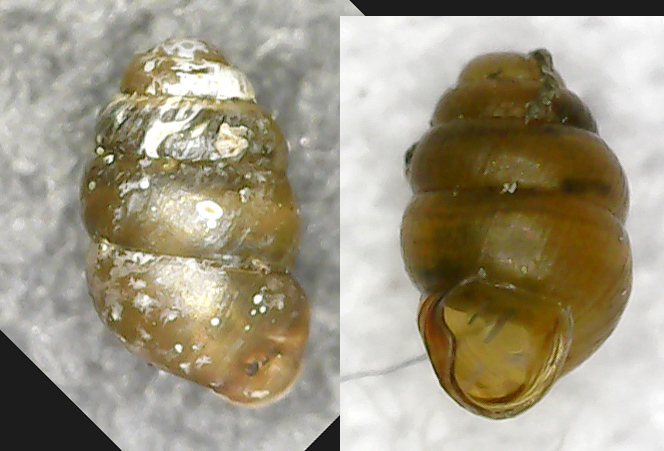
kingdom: Animalia
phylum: Mollusca
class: Gastropoda
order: Stylommatophora
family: Vertiginidae
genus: Vertigo
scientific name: Vertigo pusilla
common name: Wall whorl snail
